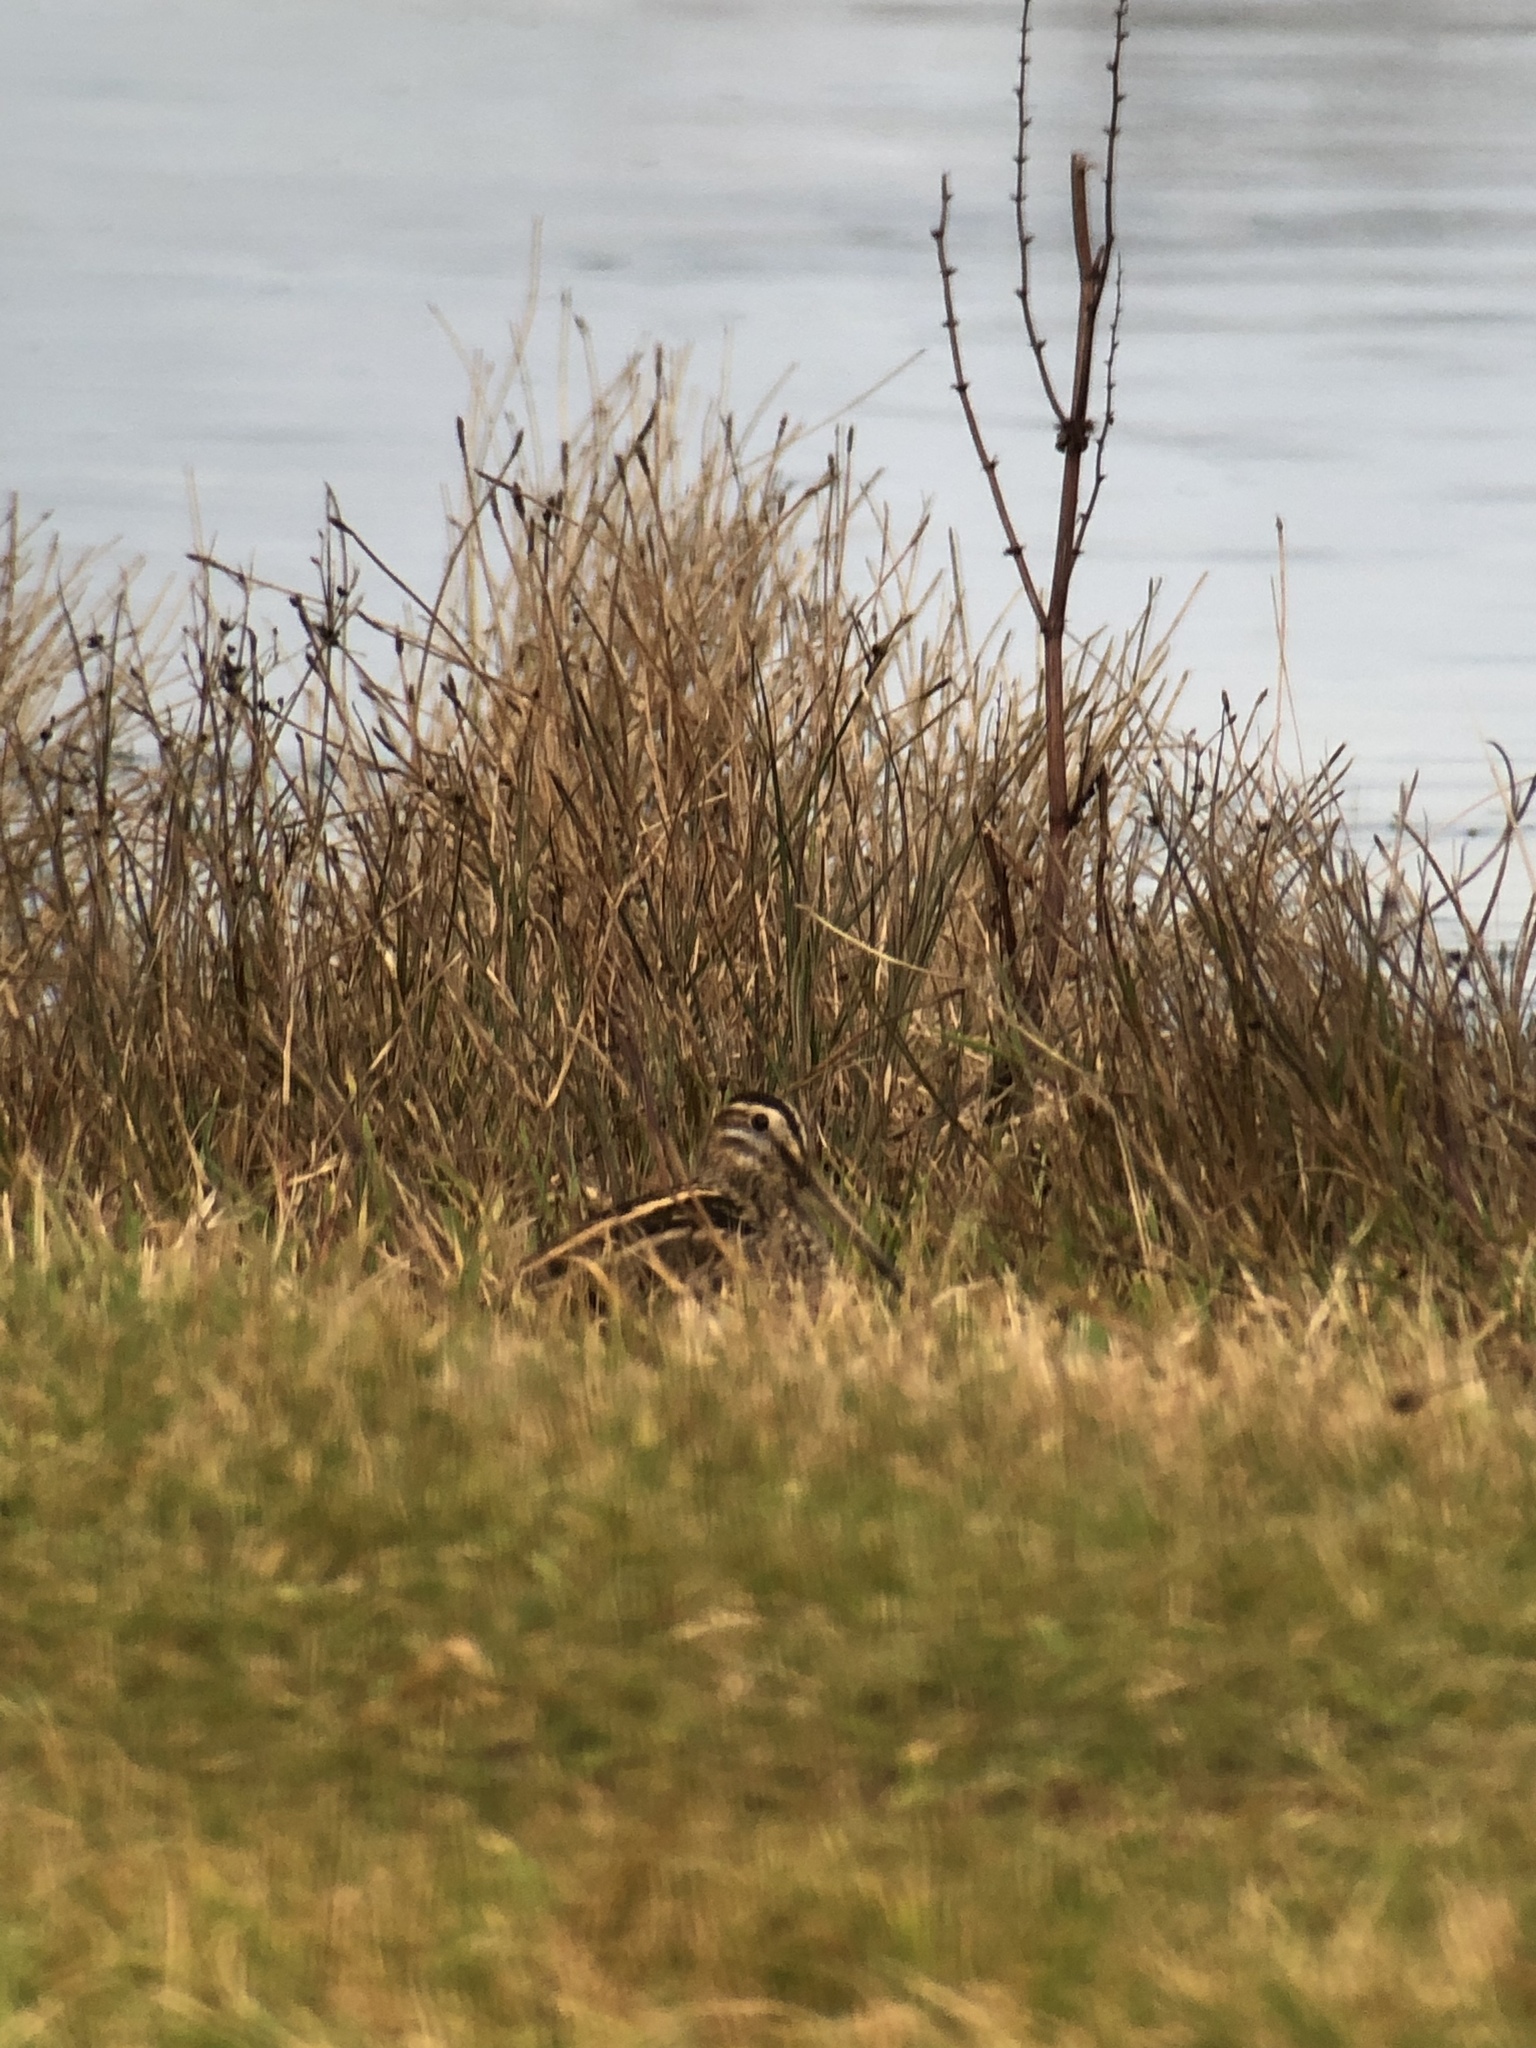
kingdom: Animalia
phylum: Chordata
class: Aves
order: Charadriiformes
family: Scolopacidae
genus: Gallinago
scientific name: Gallinago gallinago
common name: Common snipe
